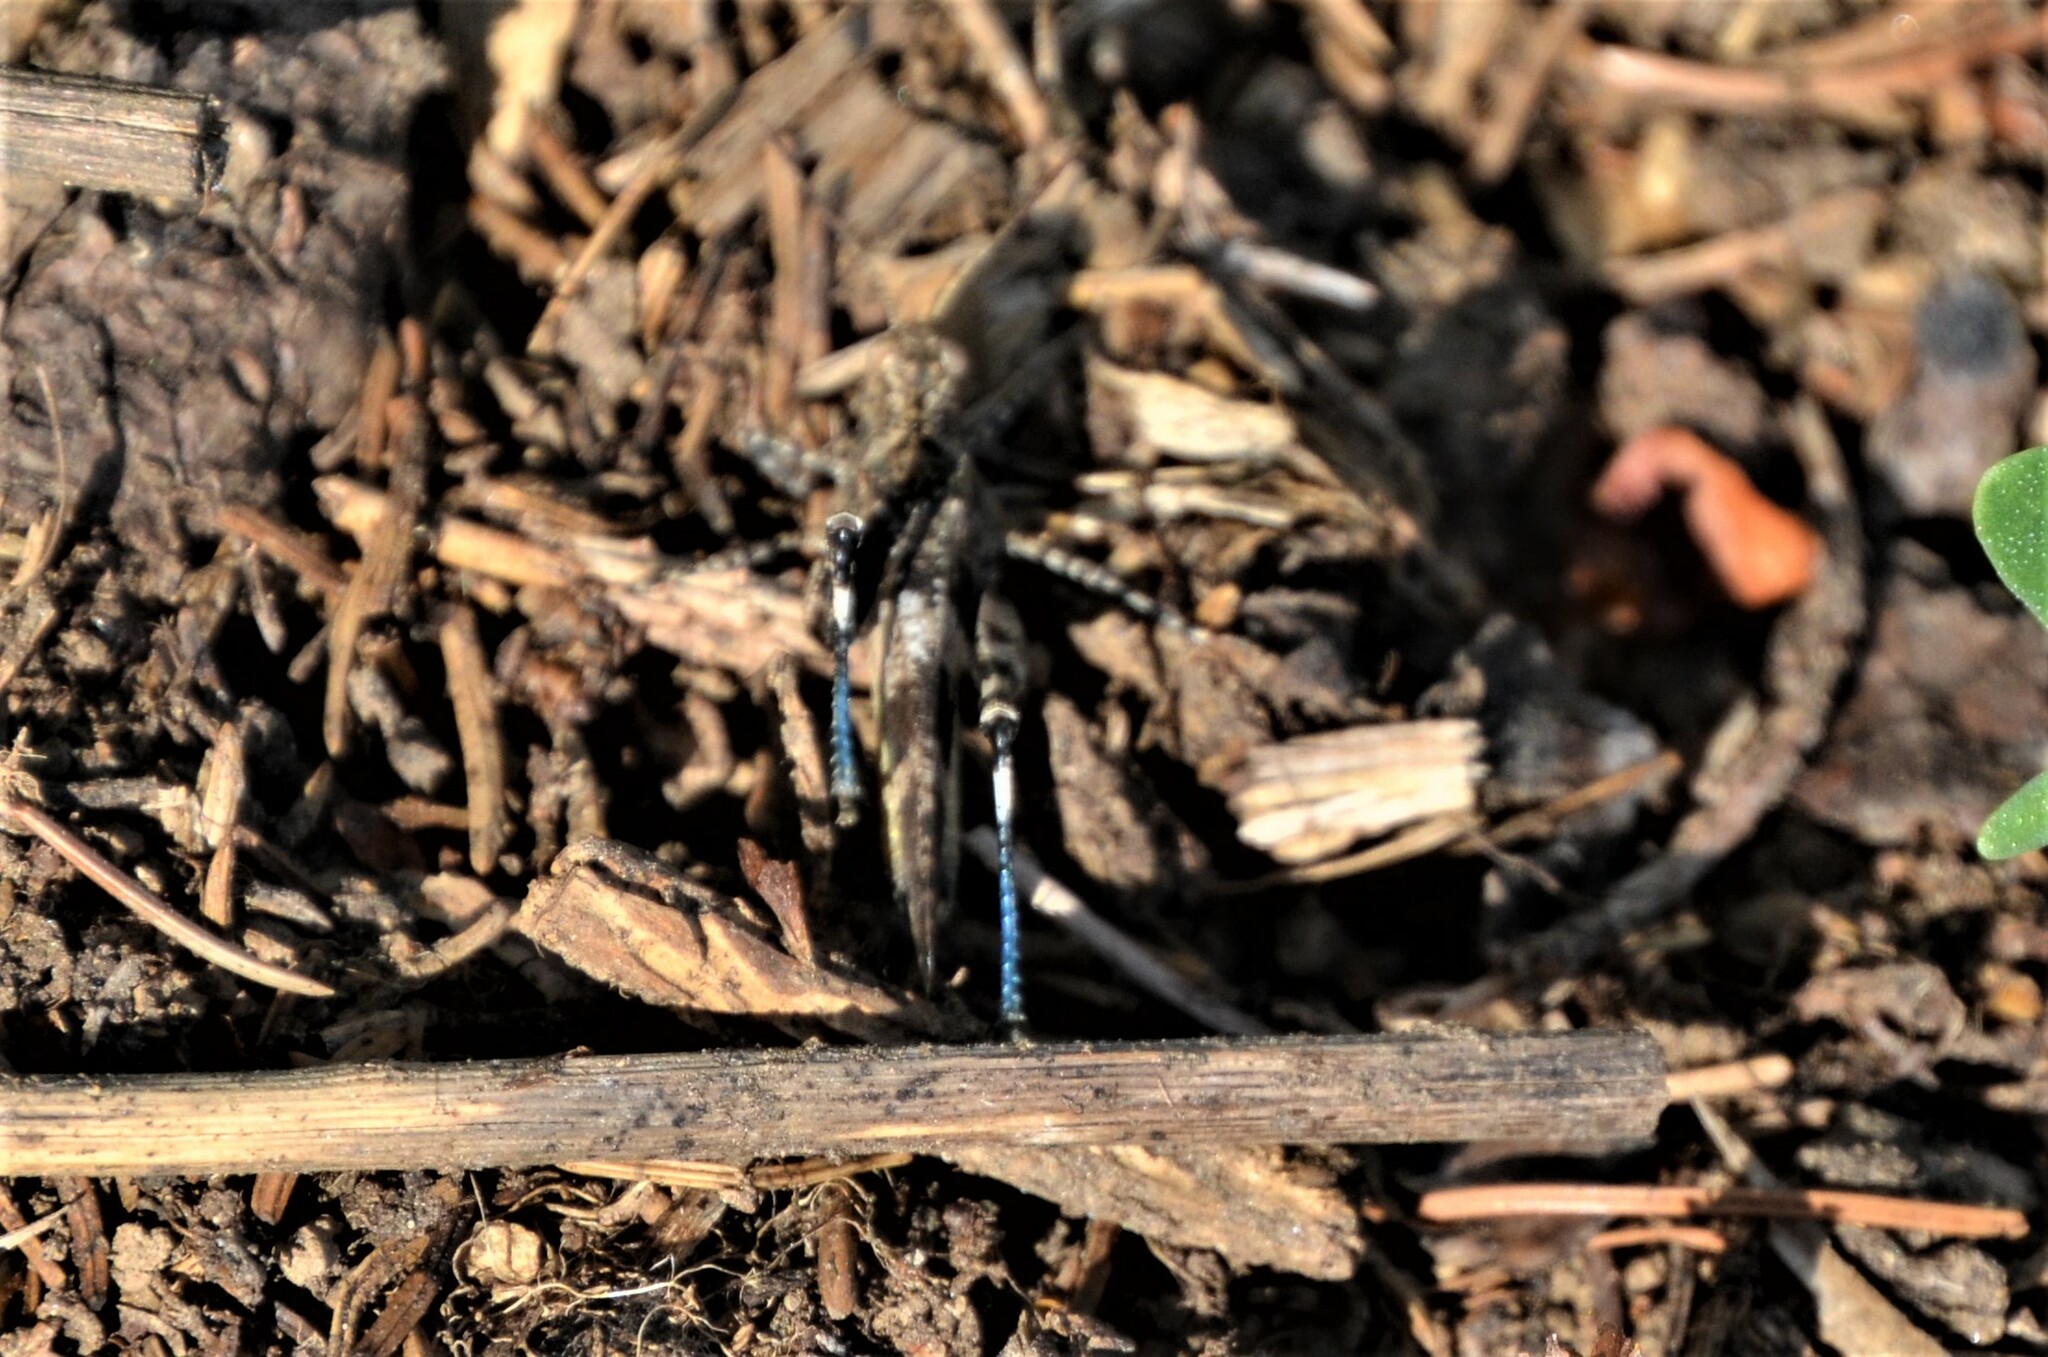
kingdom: Animalia
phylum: Arthropoda
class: Insecta
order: Orthoptera
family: Acrididae
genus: Oedipoda
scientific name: Oedipoda caerulescens
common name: Blue-winged grasshopper
